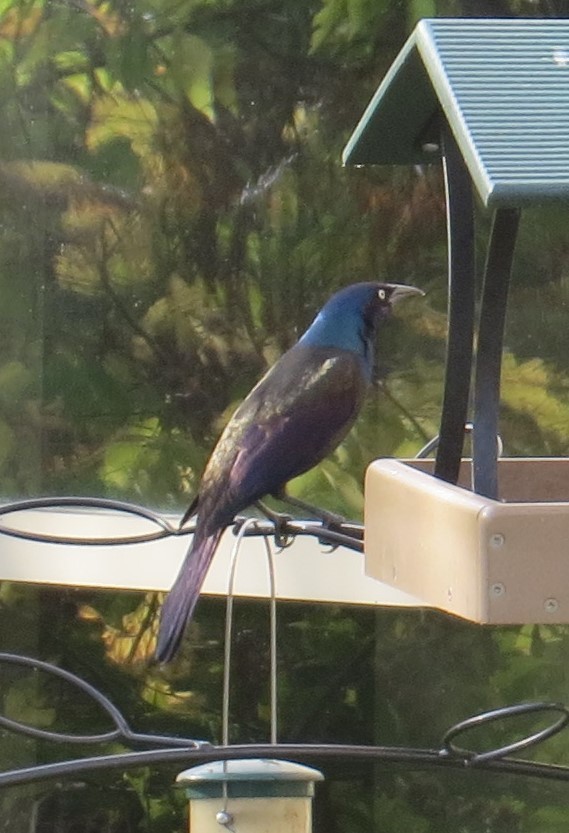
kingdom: Animalia
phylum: Chordata
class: Aves
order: Passeriformes
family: Icteridae
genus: Quiscalus
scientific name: Quiscalus quiscula
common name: Common grackle
